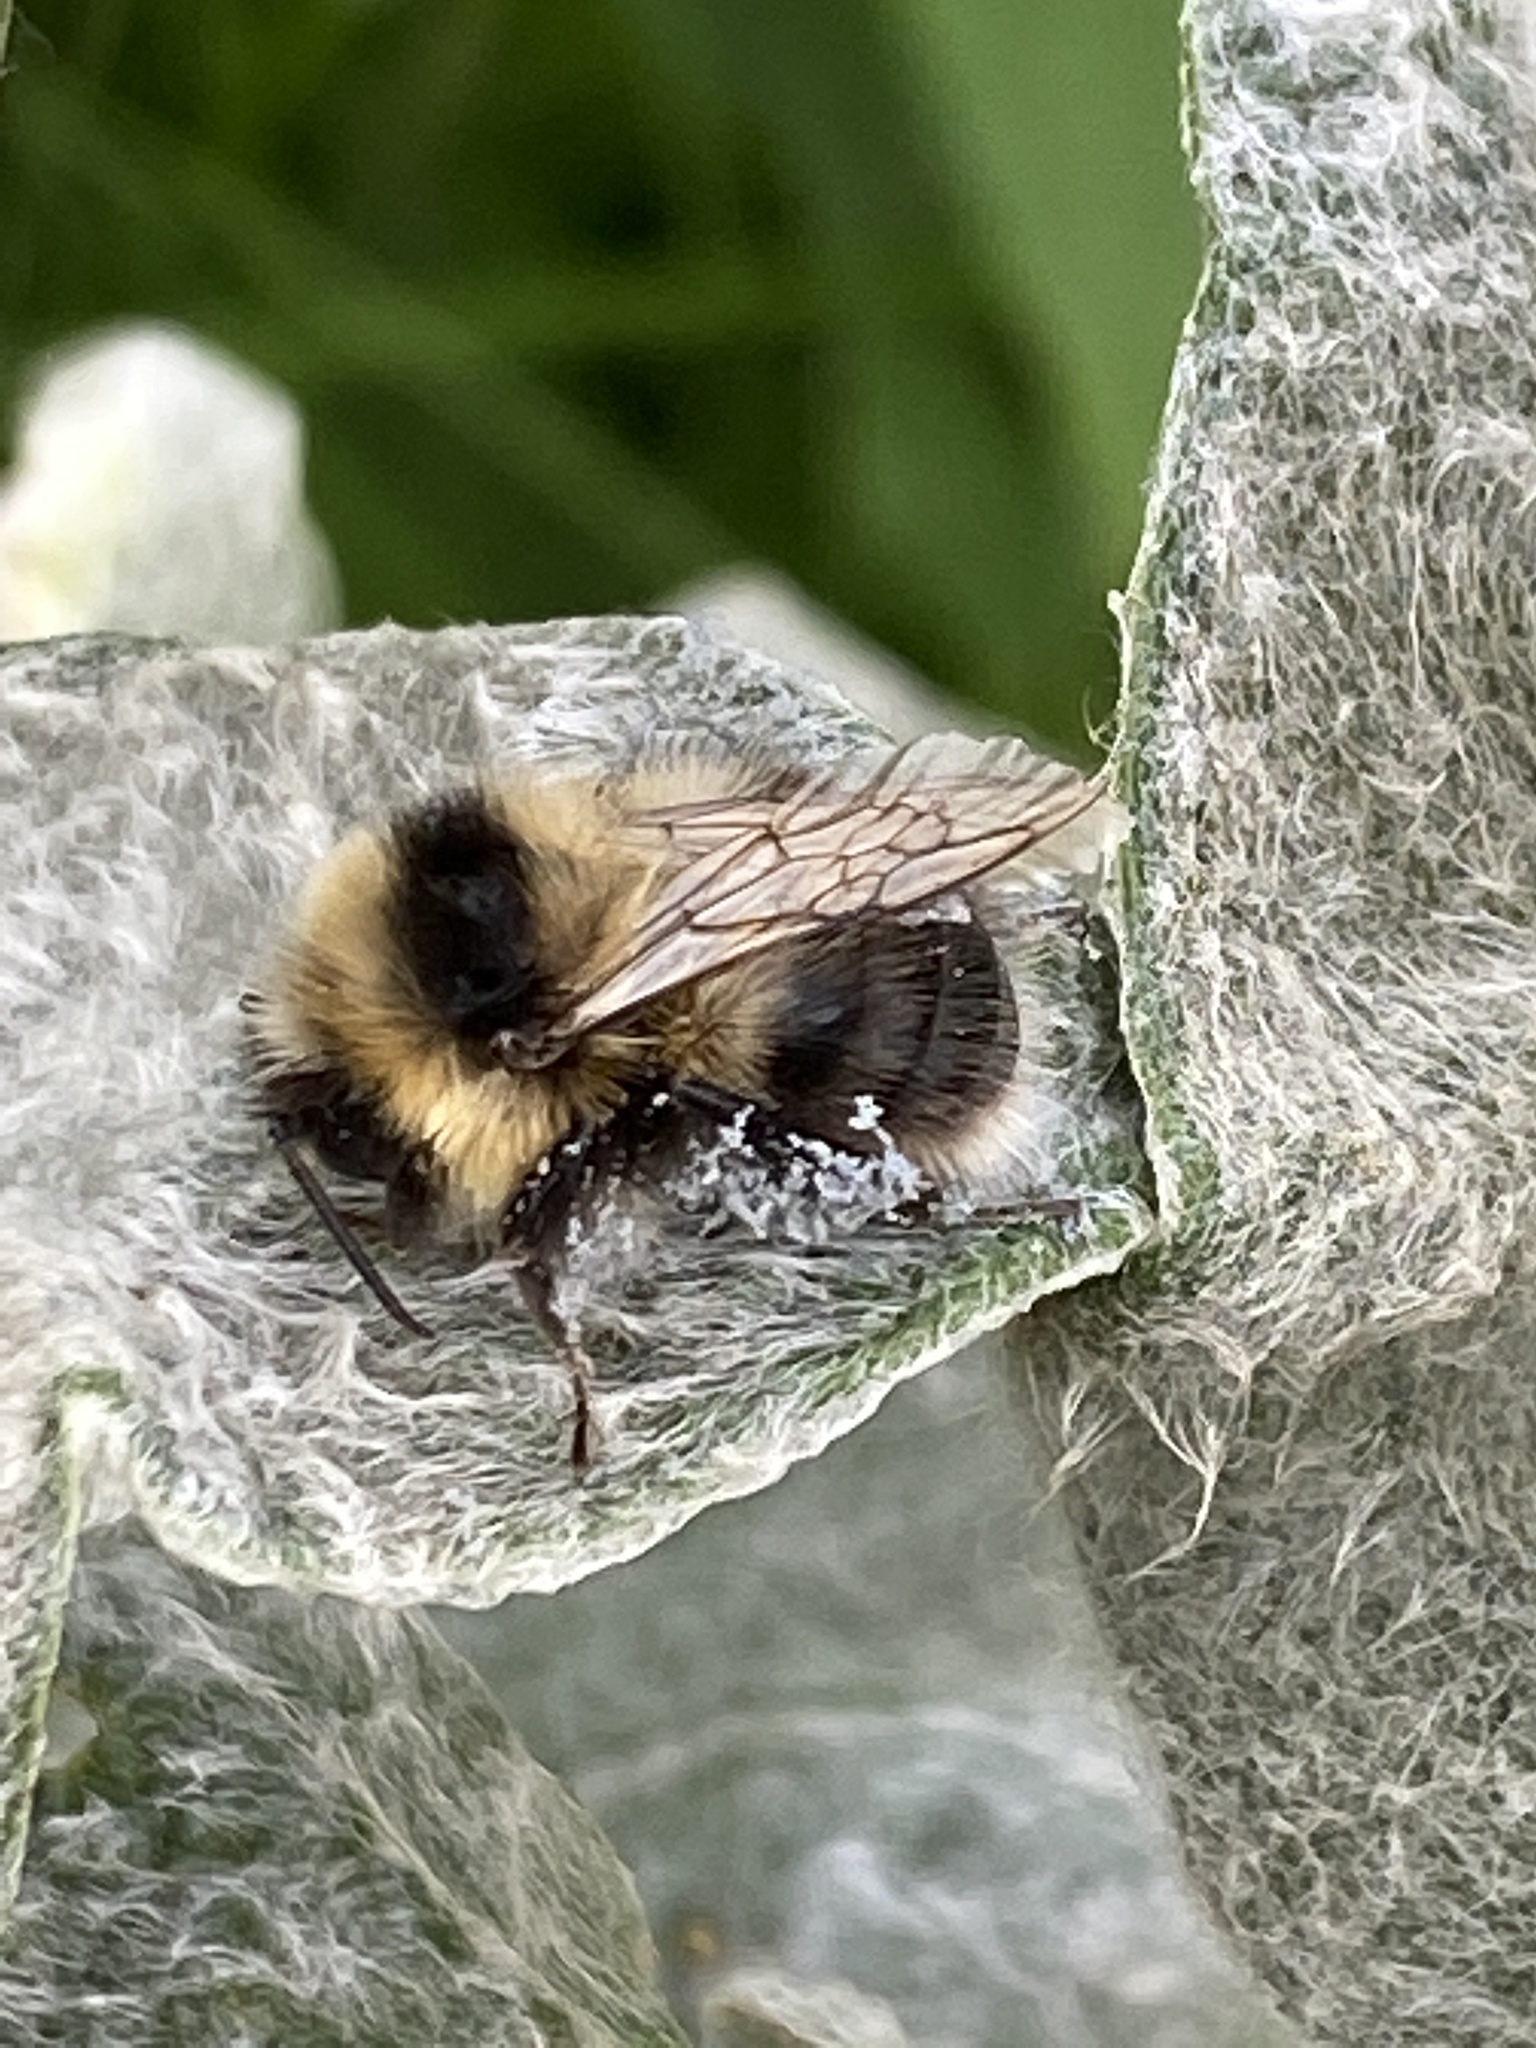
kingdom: Animalia
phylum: Arthropoda
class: Insecta
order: Hymenoptera
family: Apidae
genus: Bombus
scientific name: Bombus jonellus
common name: Heath humble-bee
